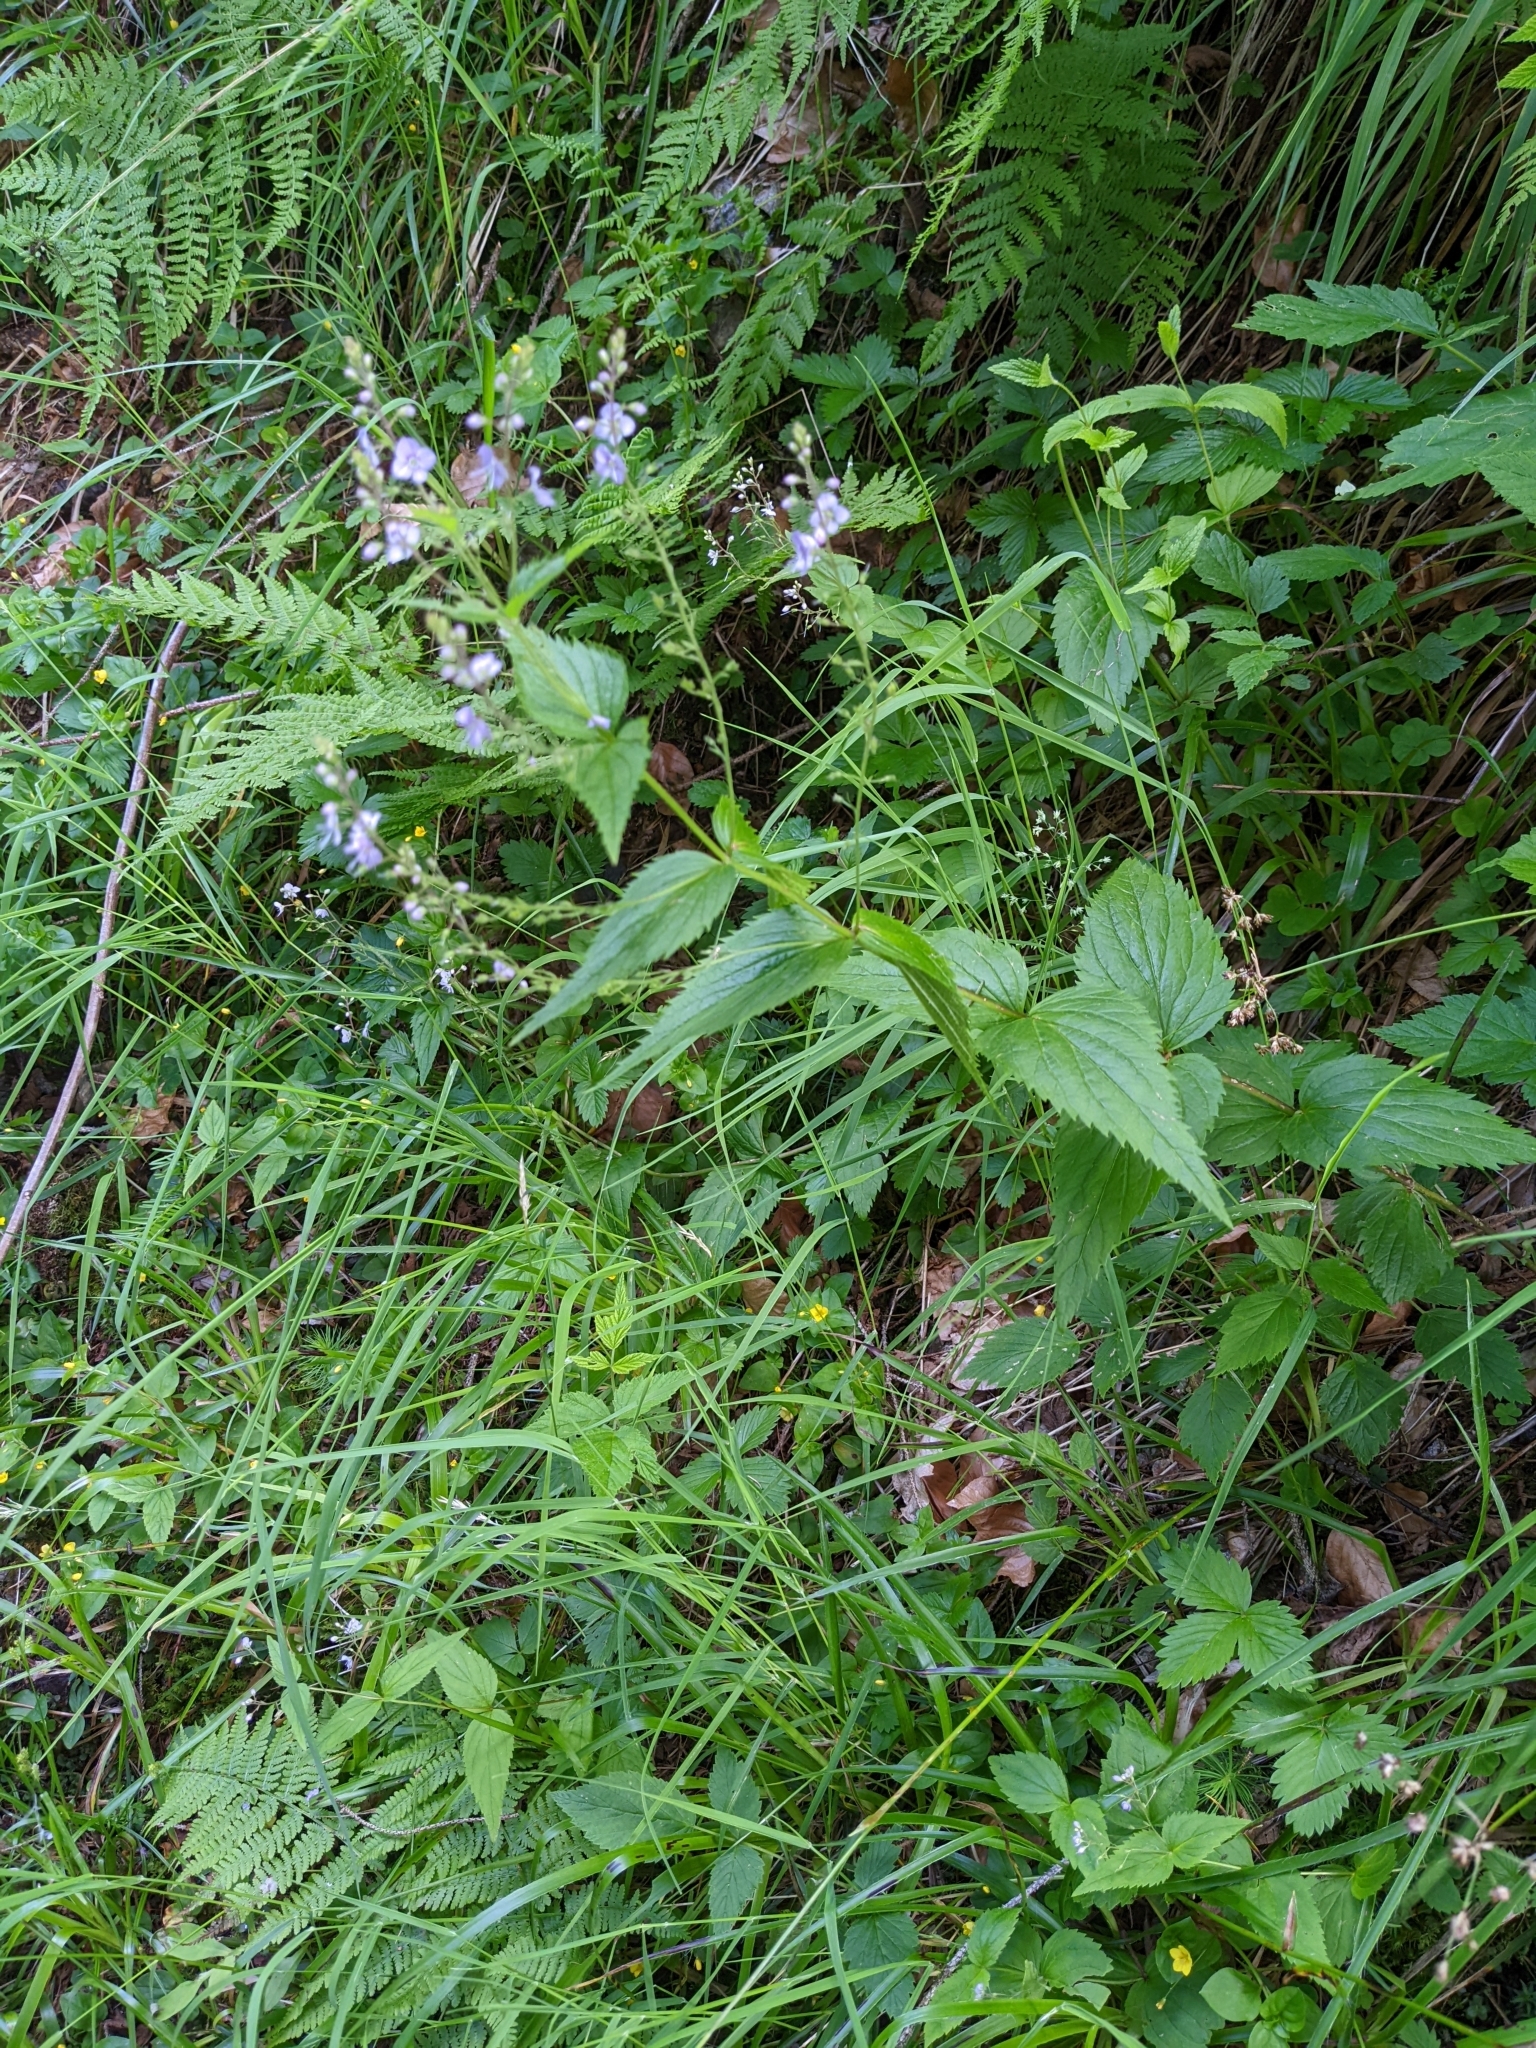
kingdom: Plantae
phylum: Tracheophyta
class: Magnoliopsida
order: Lamiales
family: Plantaginaceae
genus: Veronica
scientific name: Veronica urticifolia
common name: Nettle-leaf speedwell
